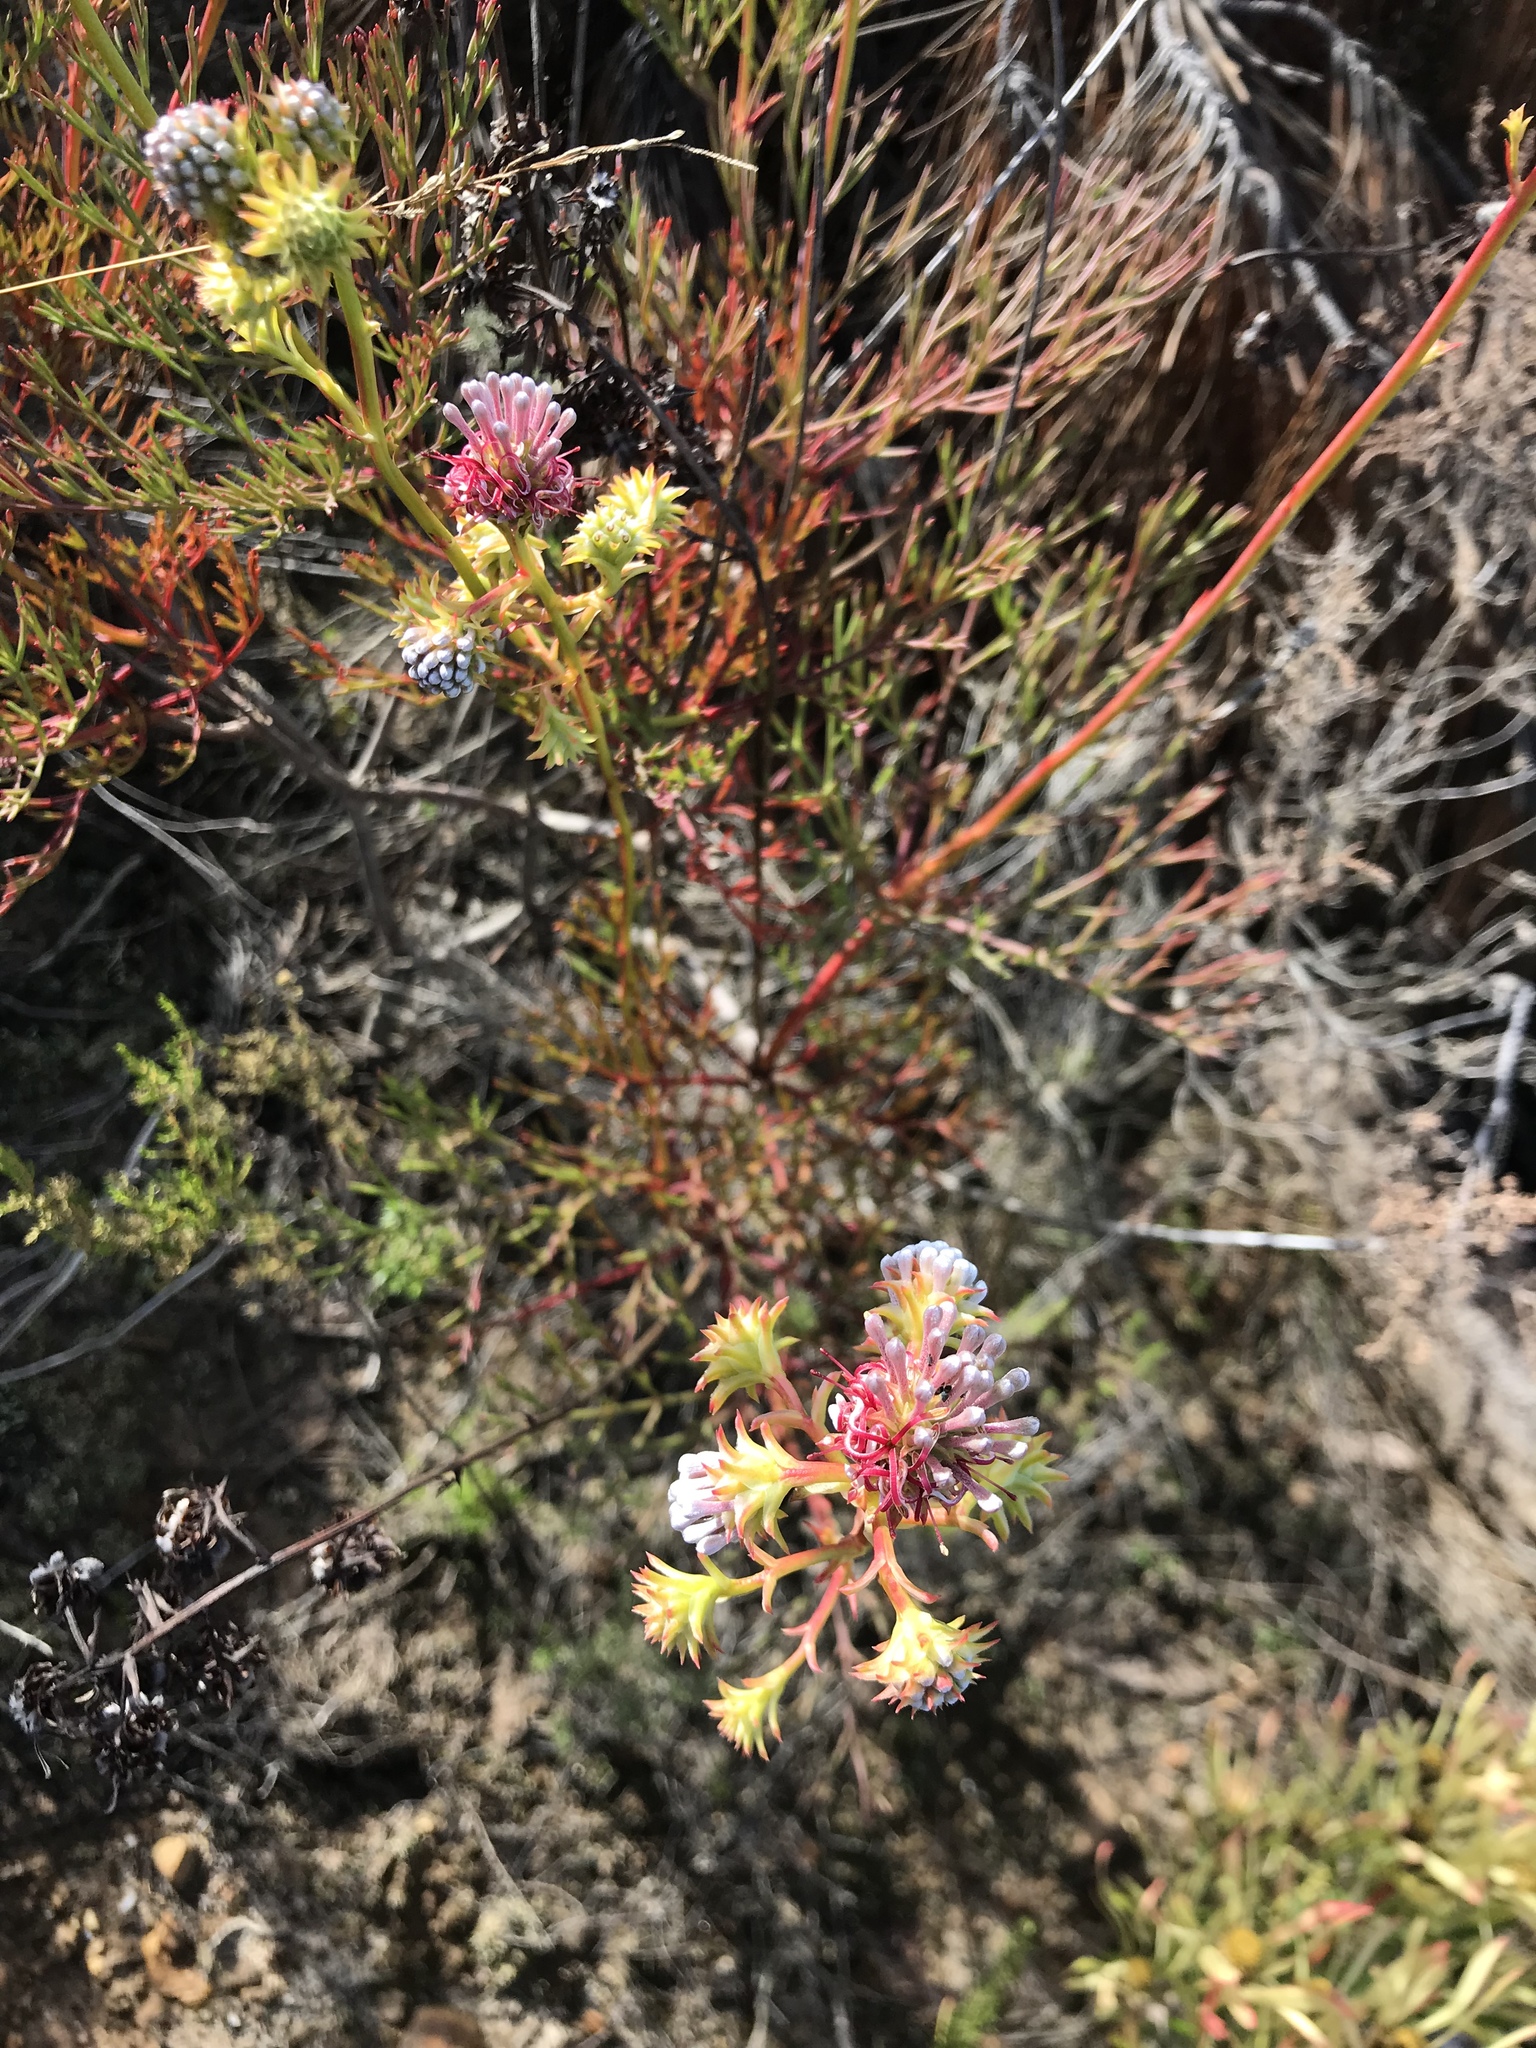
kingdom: Plantae
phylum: Tracheophyta
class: Magnoliopsida
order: Proteales
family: Proteaceae
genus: Serruria
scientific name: Serruria elongata
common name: Long-stalk spiderhead
